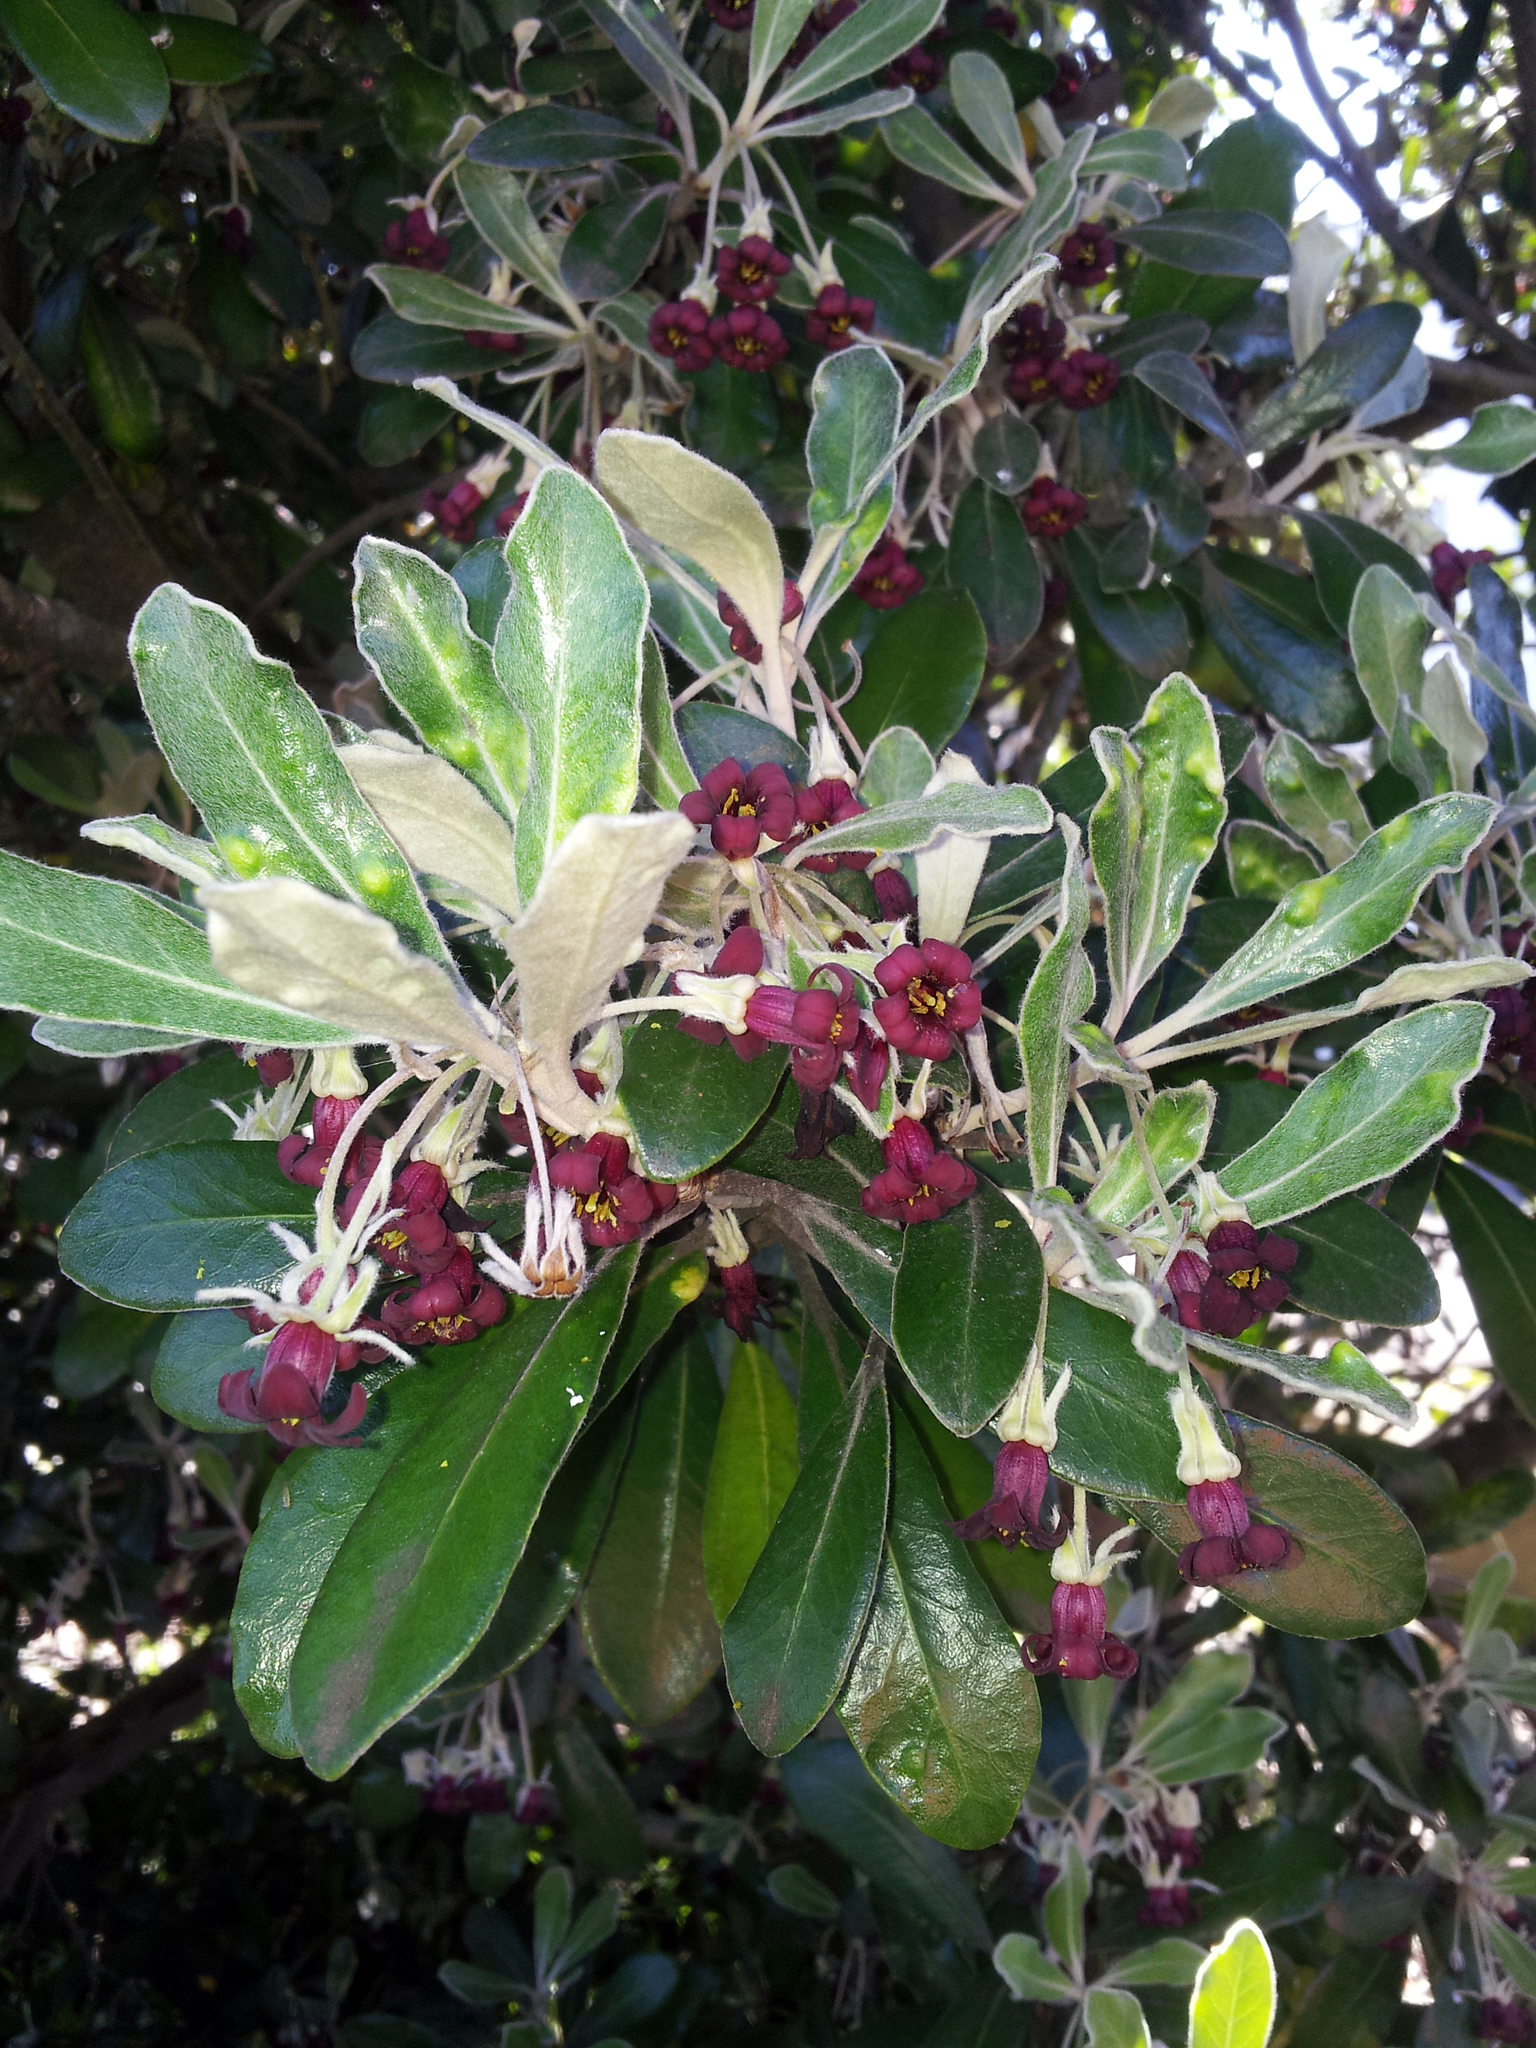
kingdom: Plantae
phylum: Tracheophyta
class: Magnoliopsida
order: Apiales
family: Pittosporaceae
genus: Pittosporum
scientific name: Pittosporum crassifolium
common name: Karo
